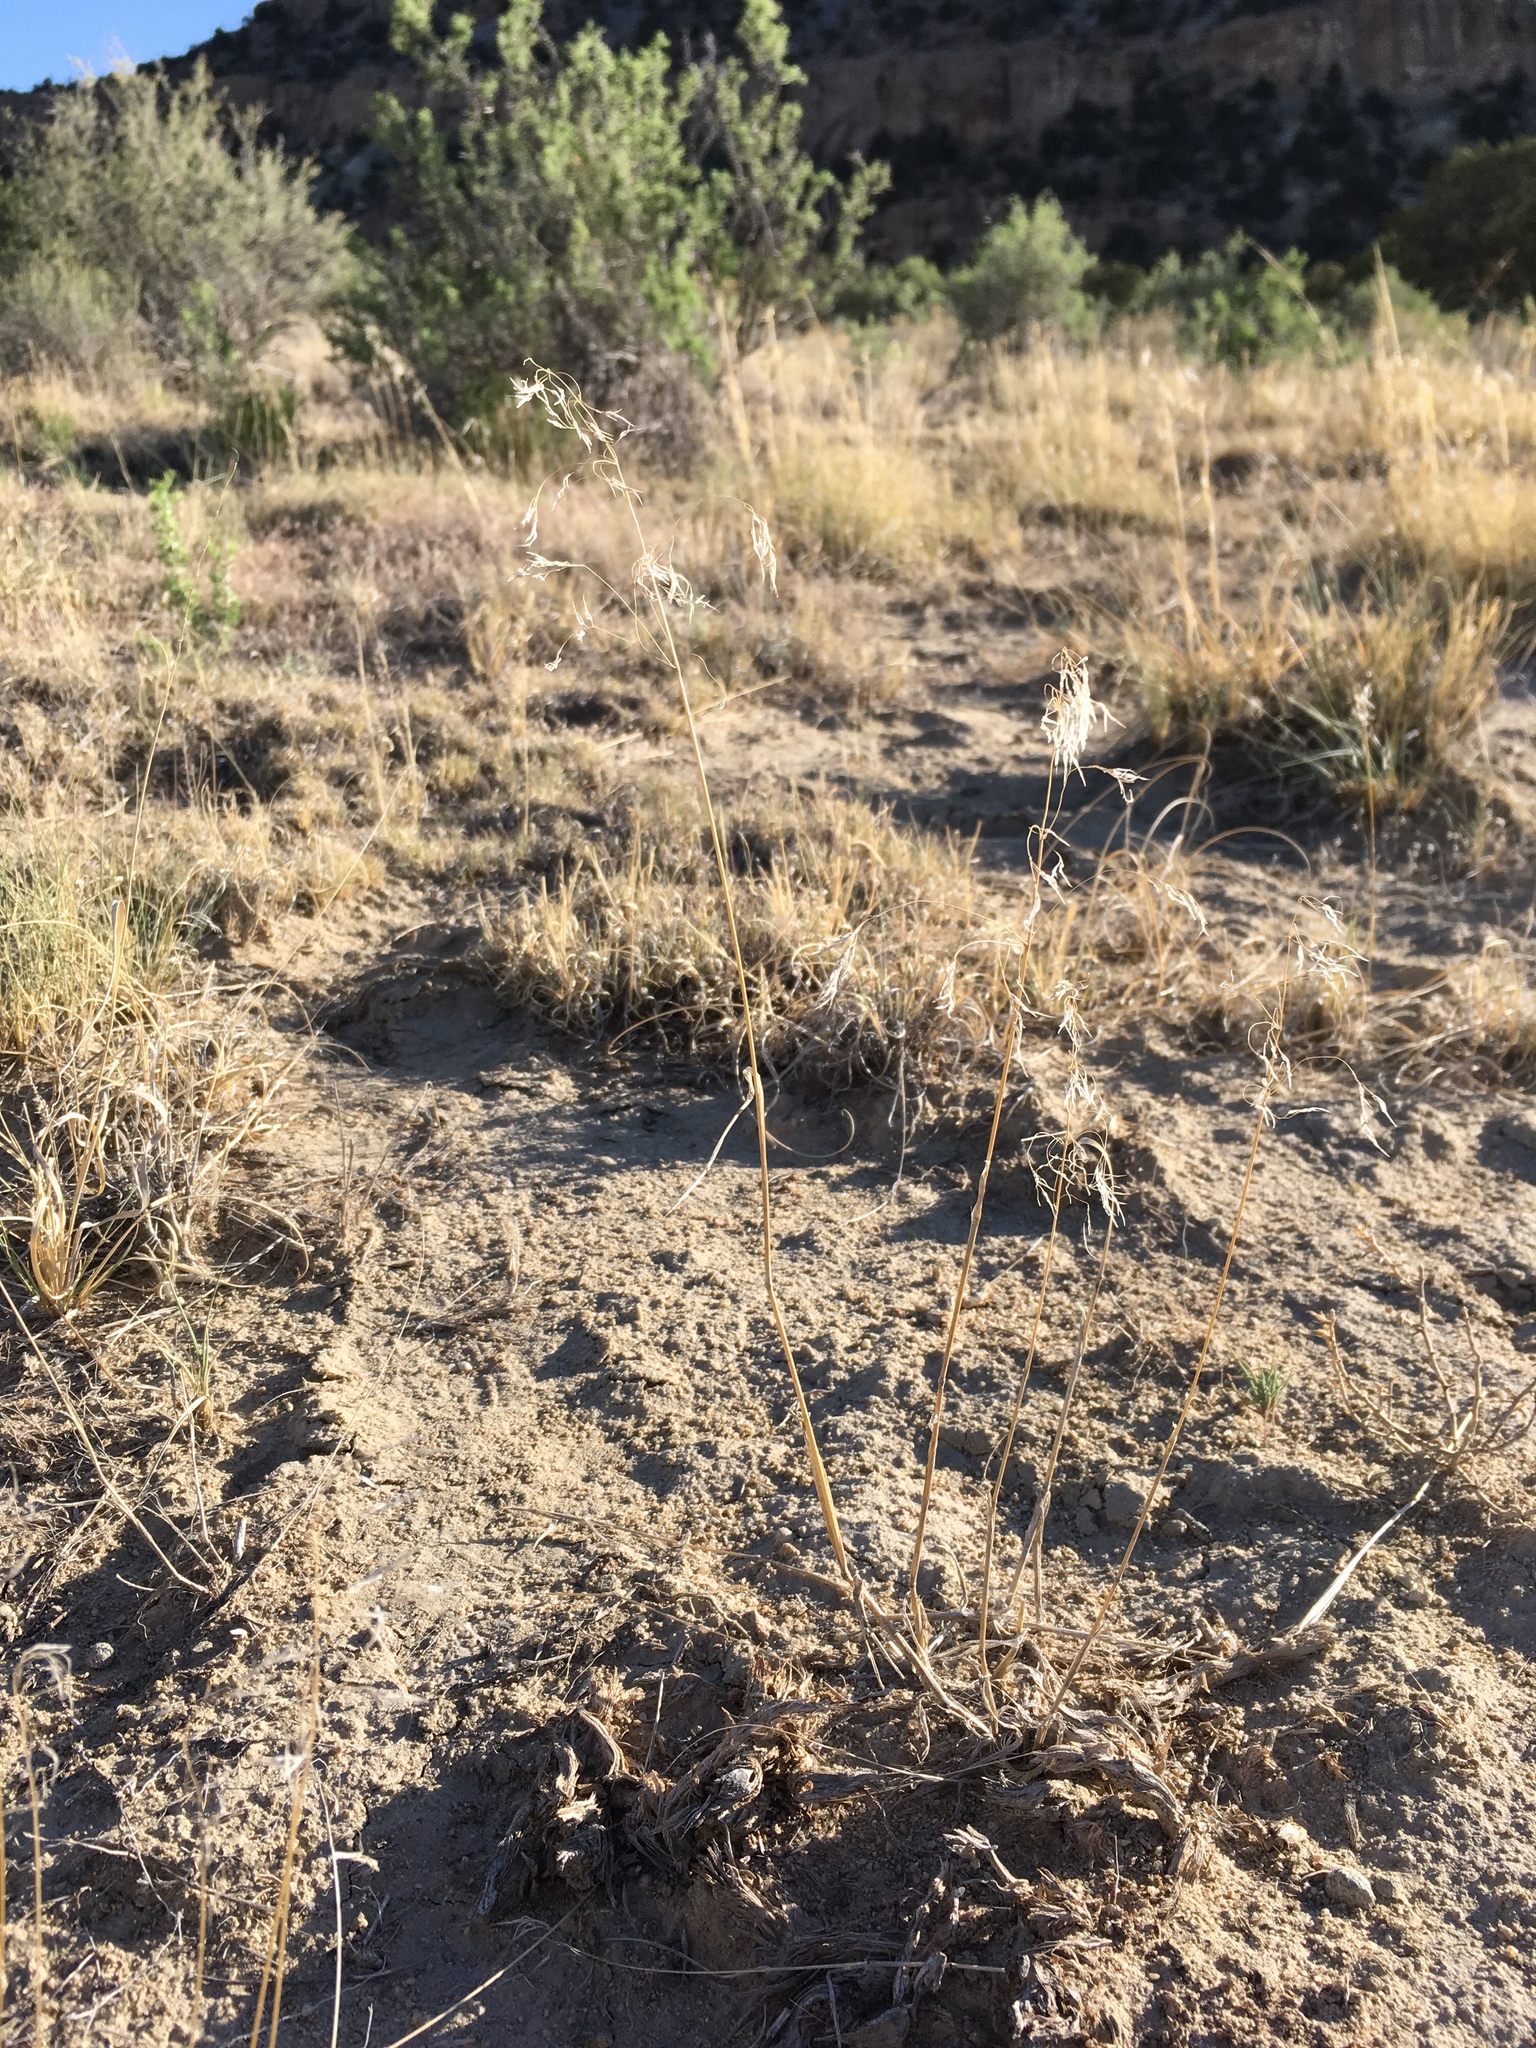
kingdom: Plantae
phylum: Tracheophyta
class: Liliopsida
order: Poales
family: Poaceae
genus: Bromus
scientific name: Bromus tectorum
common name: Cheatgrass
